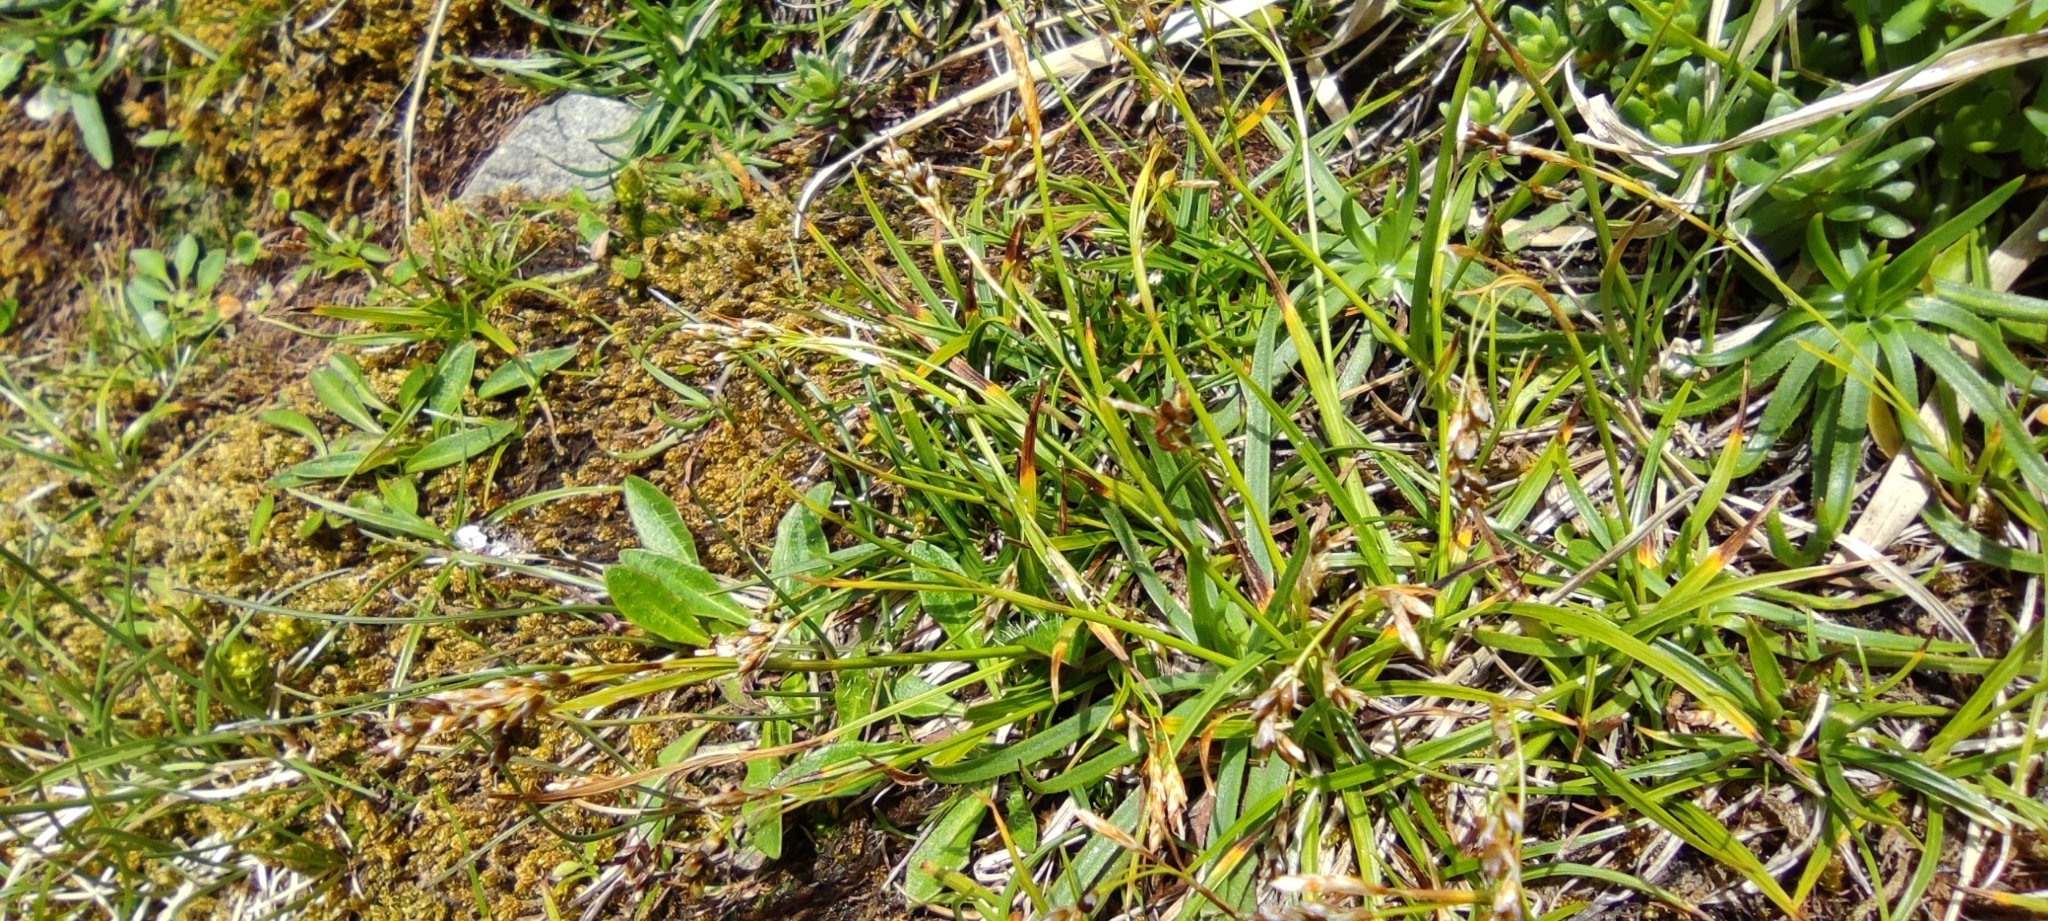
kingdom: Plantae
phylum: Tracheophyta
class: Liliopsida
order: Poales
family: Cyperaceae
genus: Carex
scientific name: Carex capillaris
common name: Hair sedge
